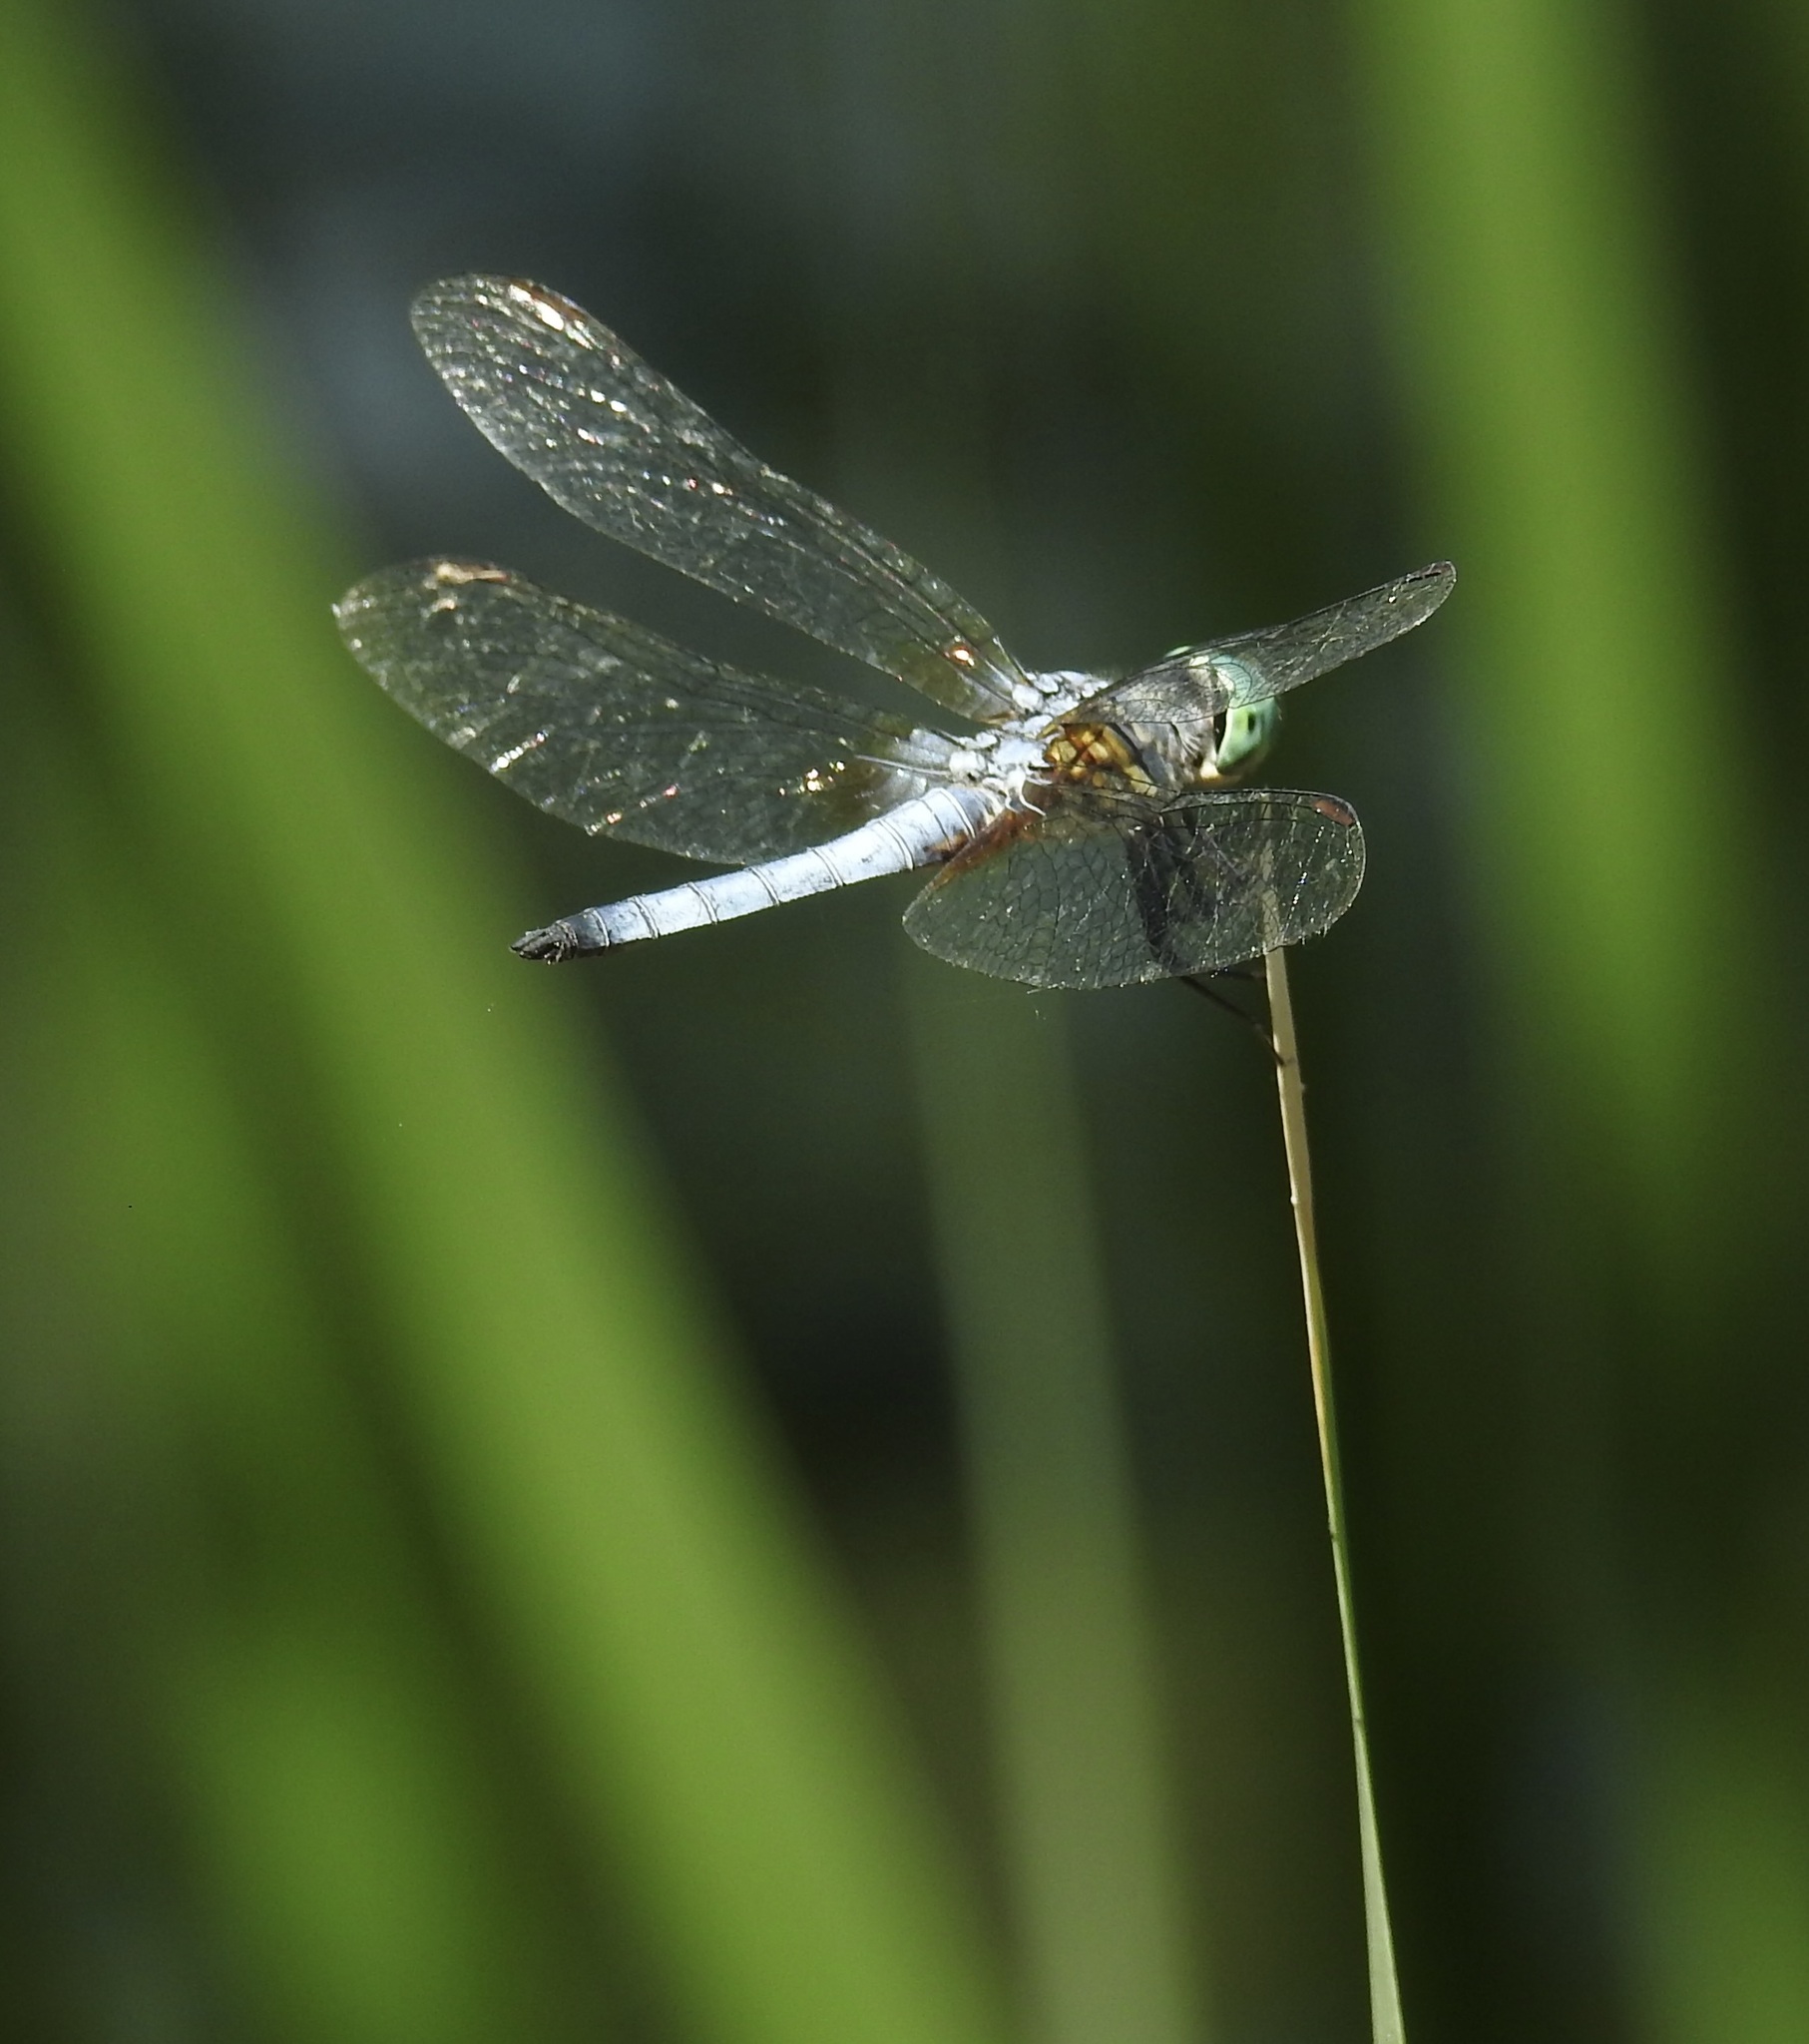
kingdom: Animalia
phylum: Arthropoda
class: Insecta
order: Odonata
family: Libellulidae
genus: Pachydiplax
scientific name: Pachydiplax longipennis
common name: Blue dasher
